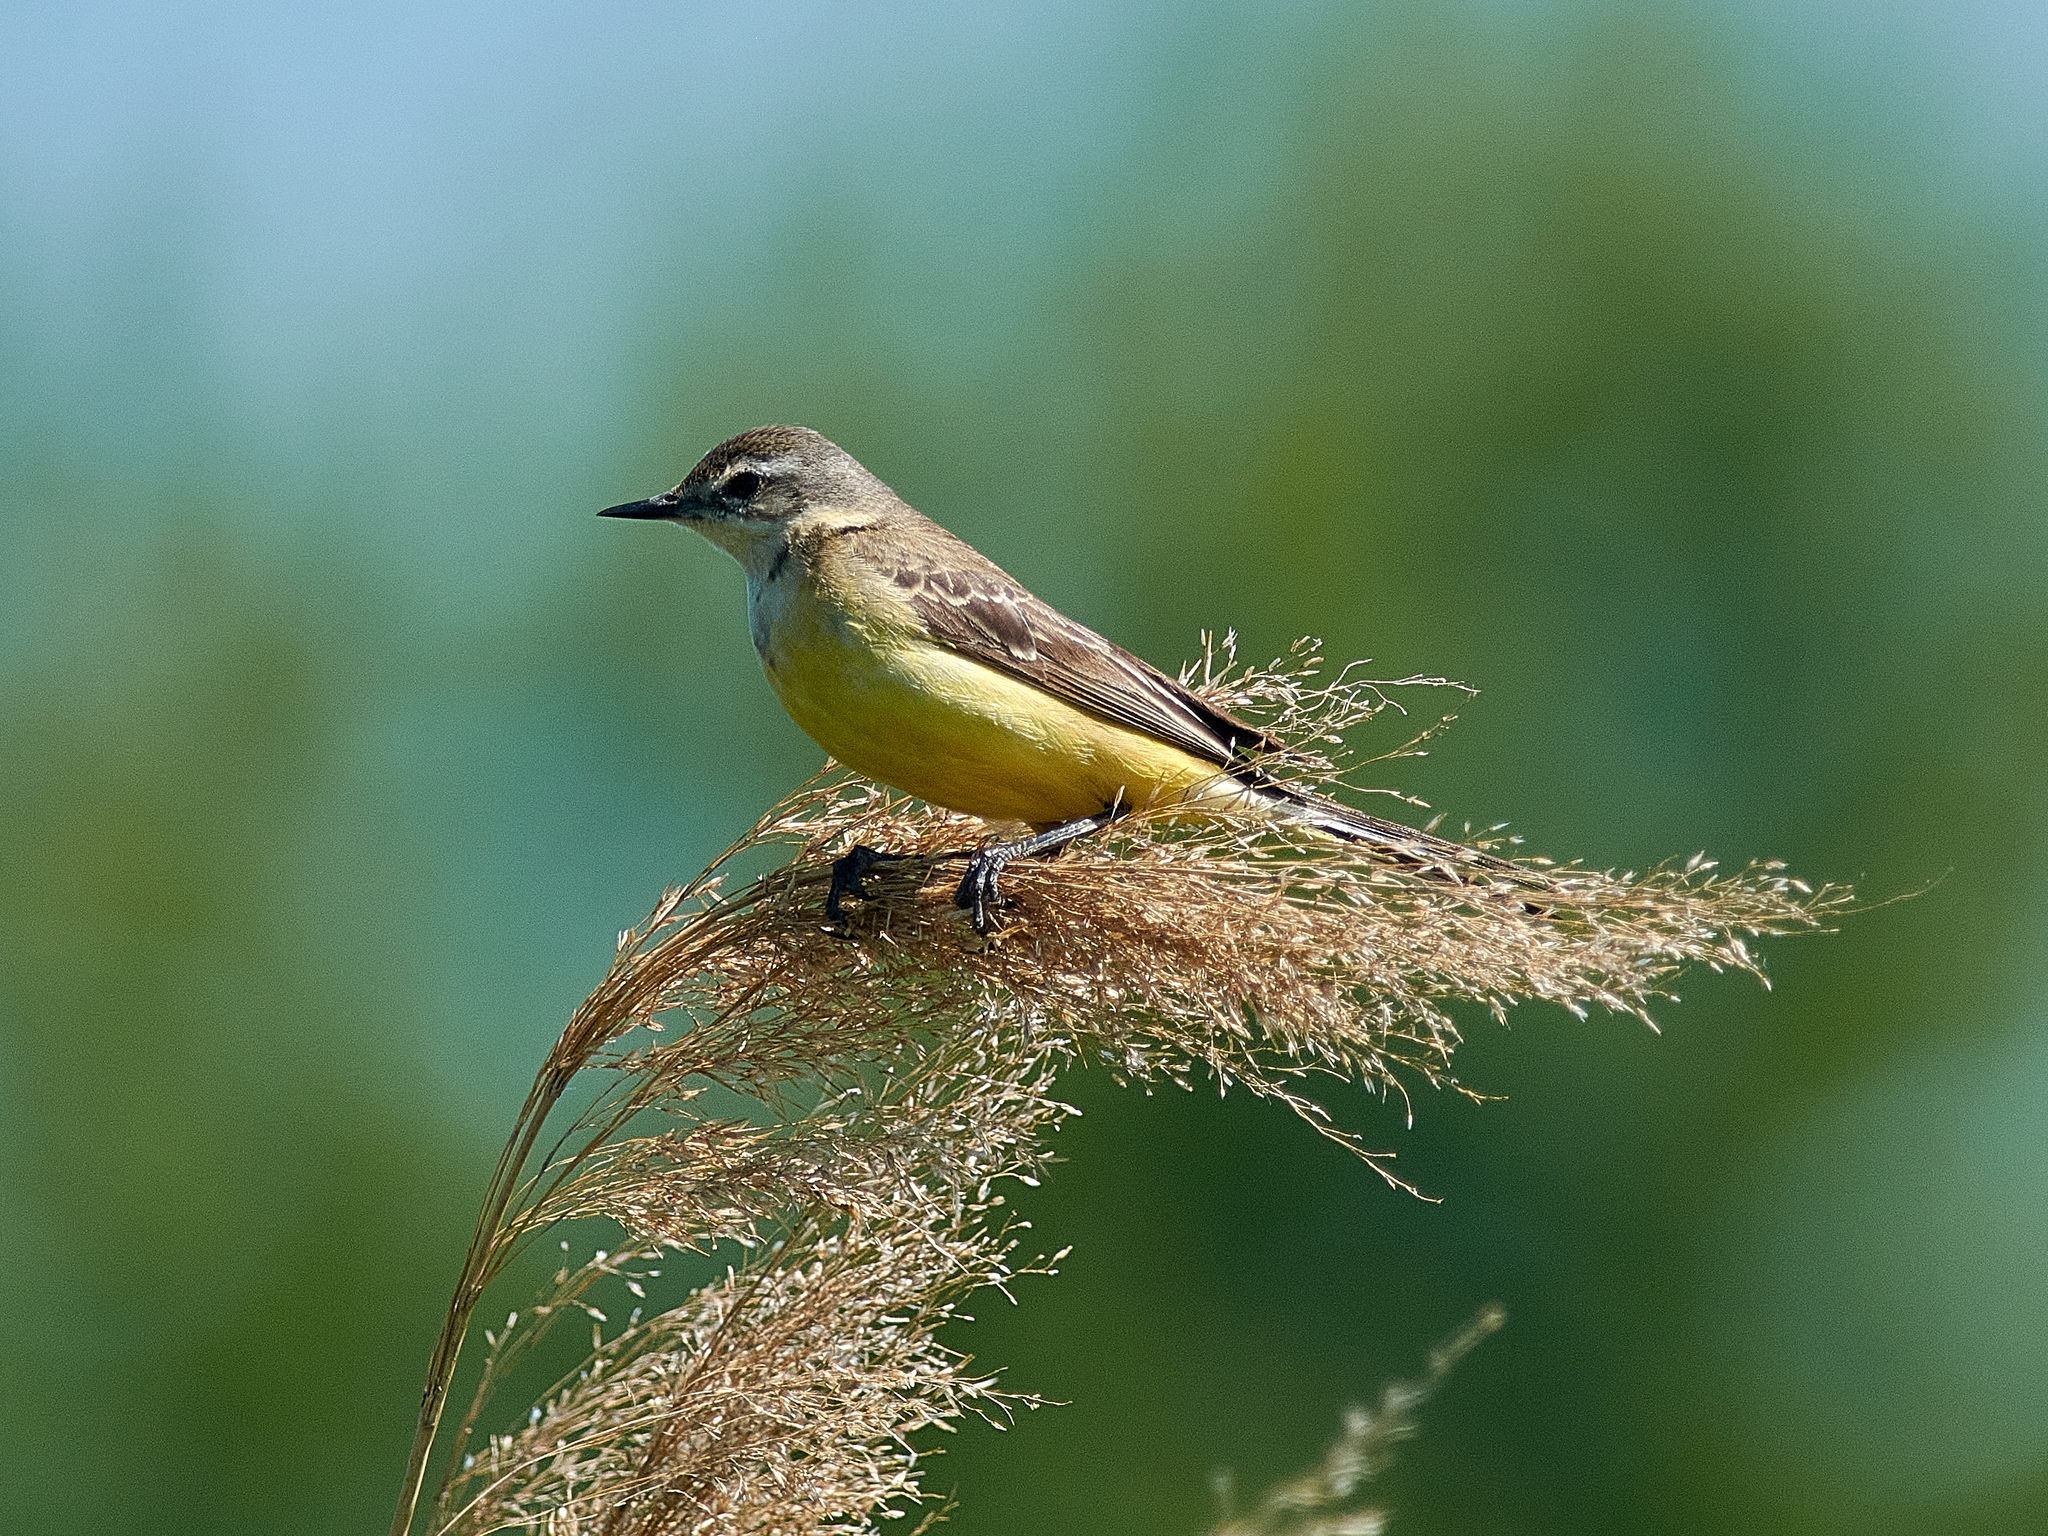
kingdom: Animalia
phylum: Chordata
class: Aves
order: Passeriformes
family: Motacillidae
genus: Motacilla
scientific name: Motacilla flava
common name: Western yellow wagtail
